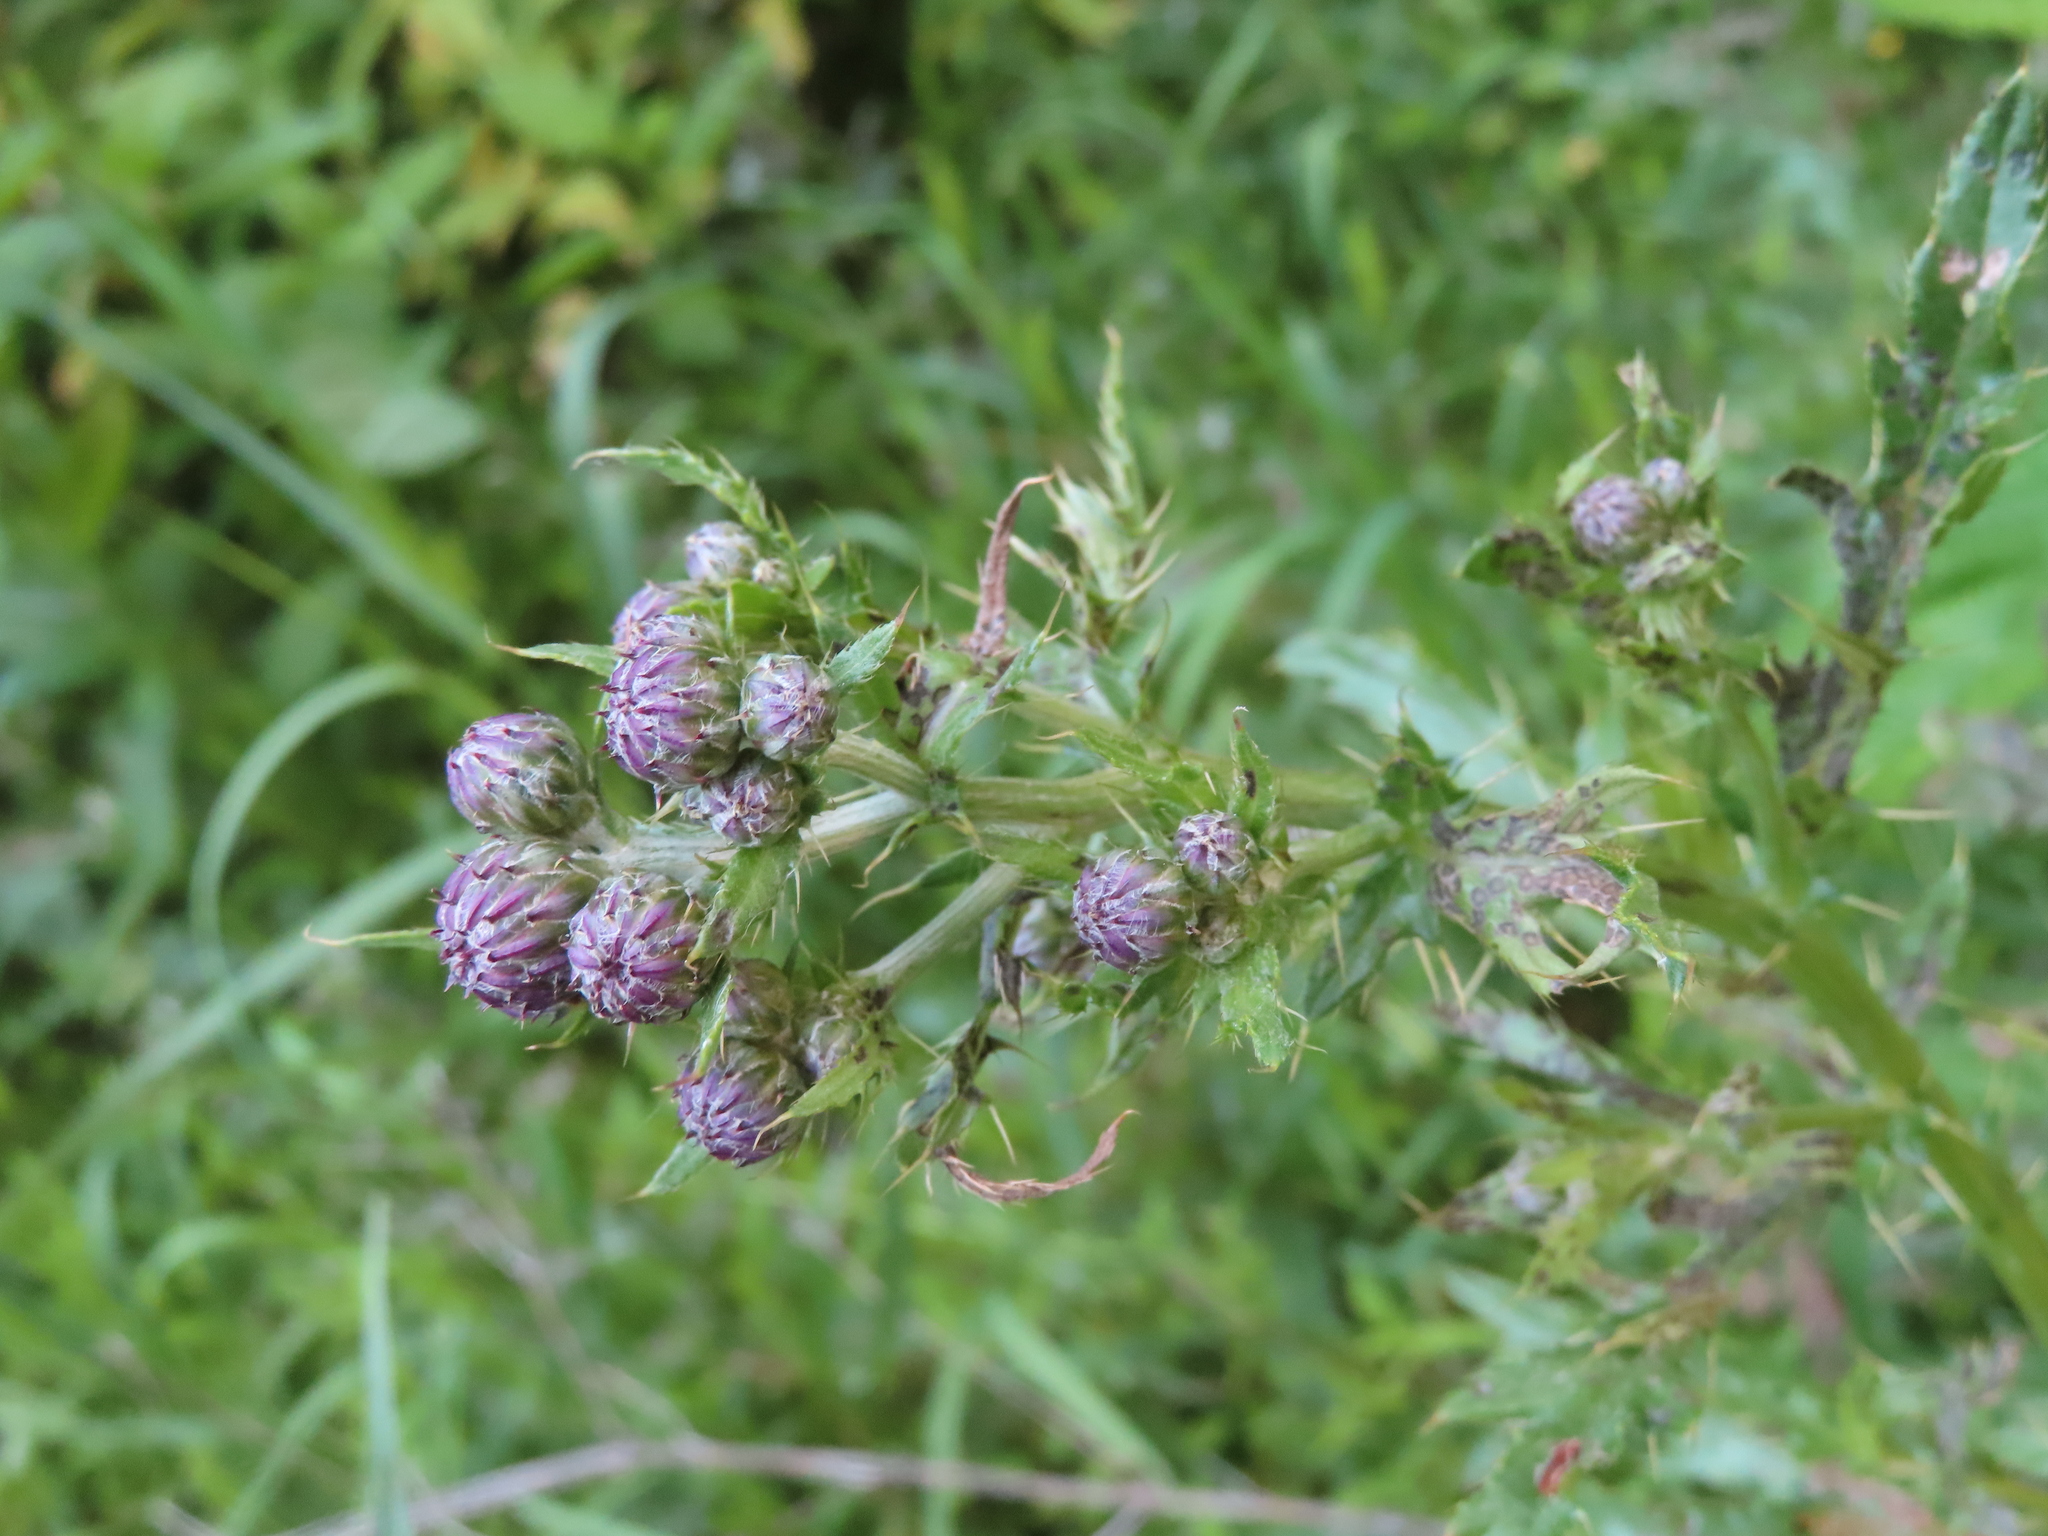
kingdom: Plantae
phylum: Tracheophyta
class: Magnoliopsida
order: Asterales
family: Asteraceae
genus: Cirsium
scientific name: Cirsium arvense
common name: Creeping thistle
